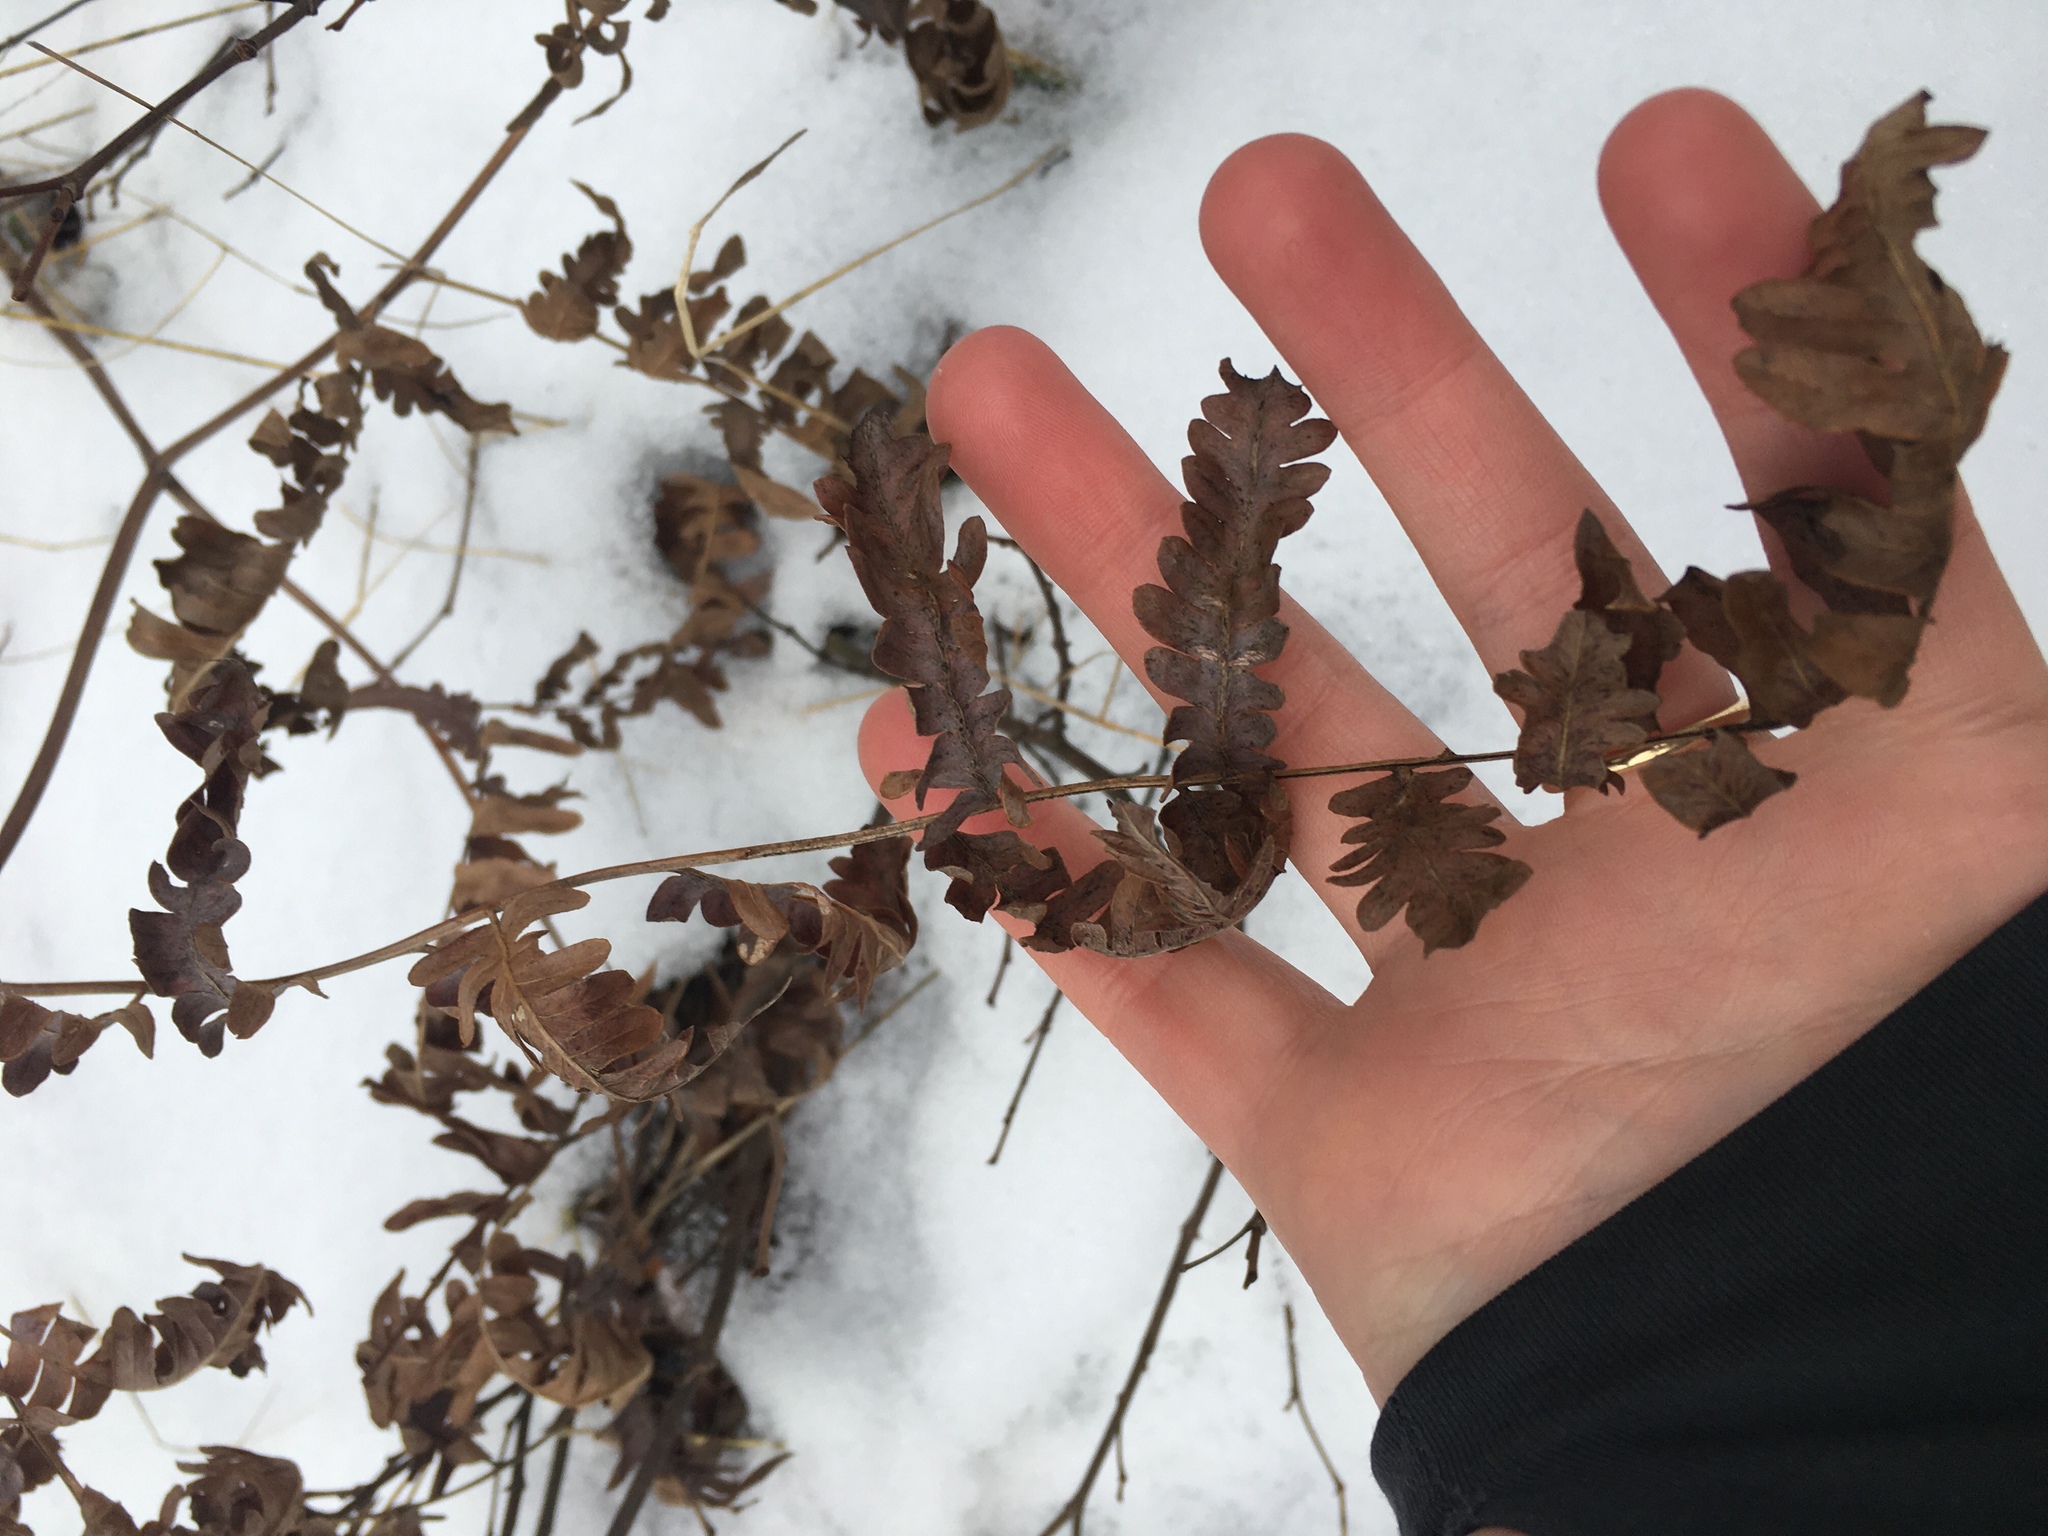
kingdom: Plantae
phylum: Tracheophyta
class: Polypodiopsida
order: Polypodiales
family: Dennstaedtiaceae
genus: Pteridium
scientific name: Pteridium aquilinum
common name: Bracken
